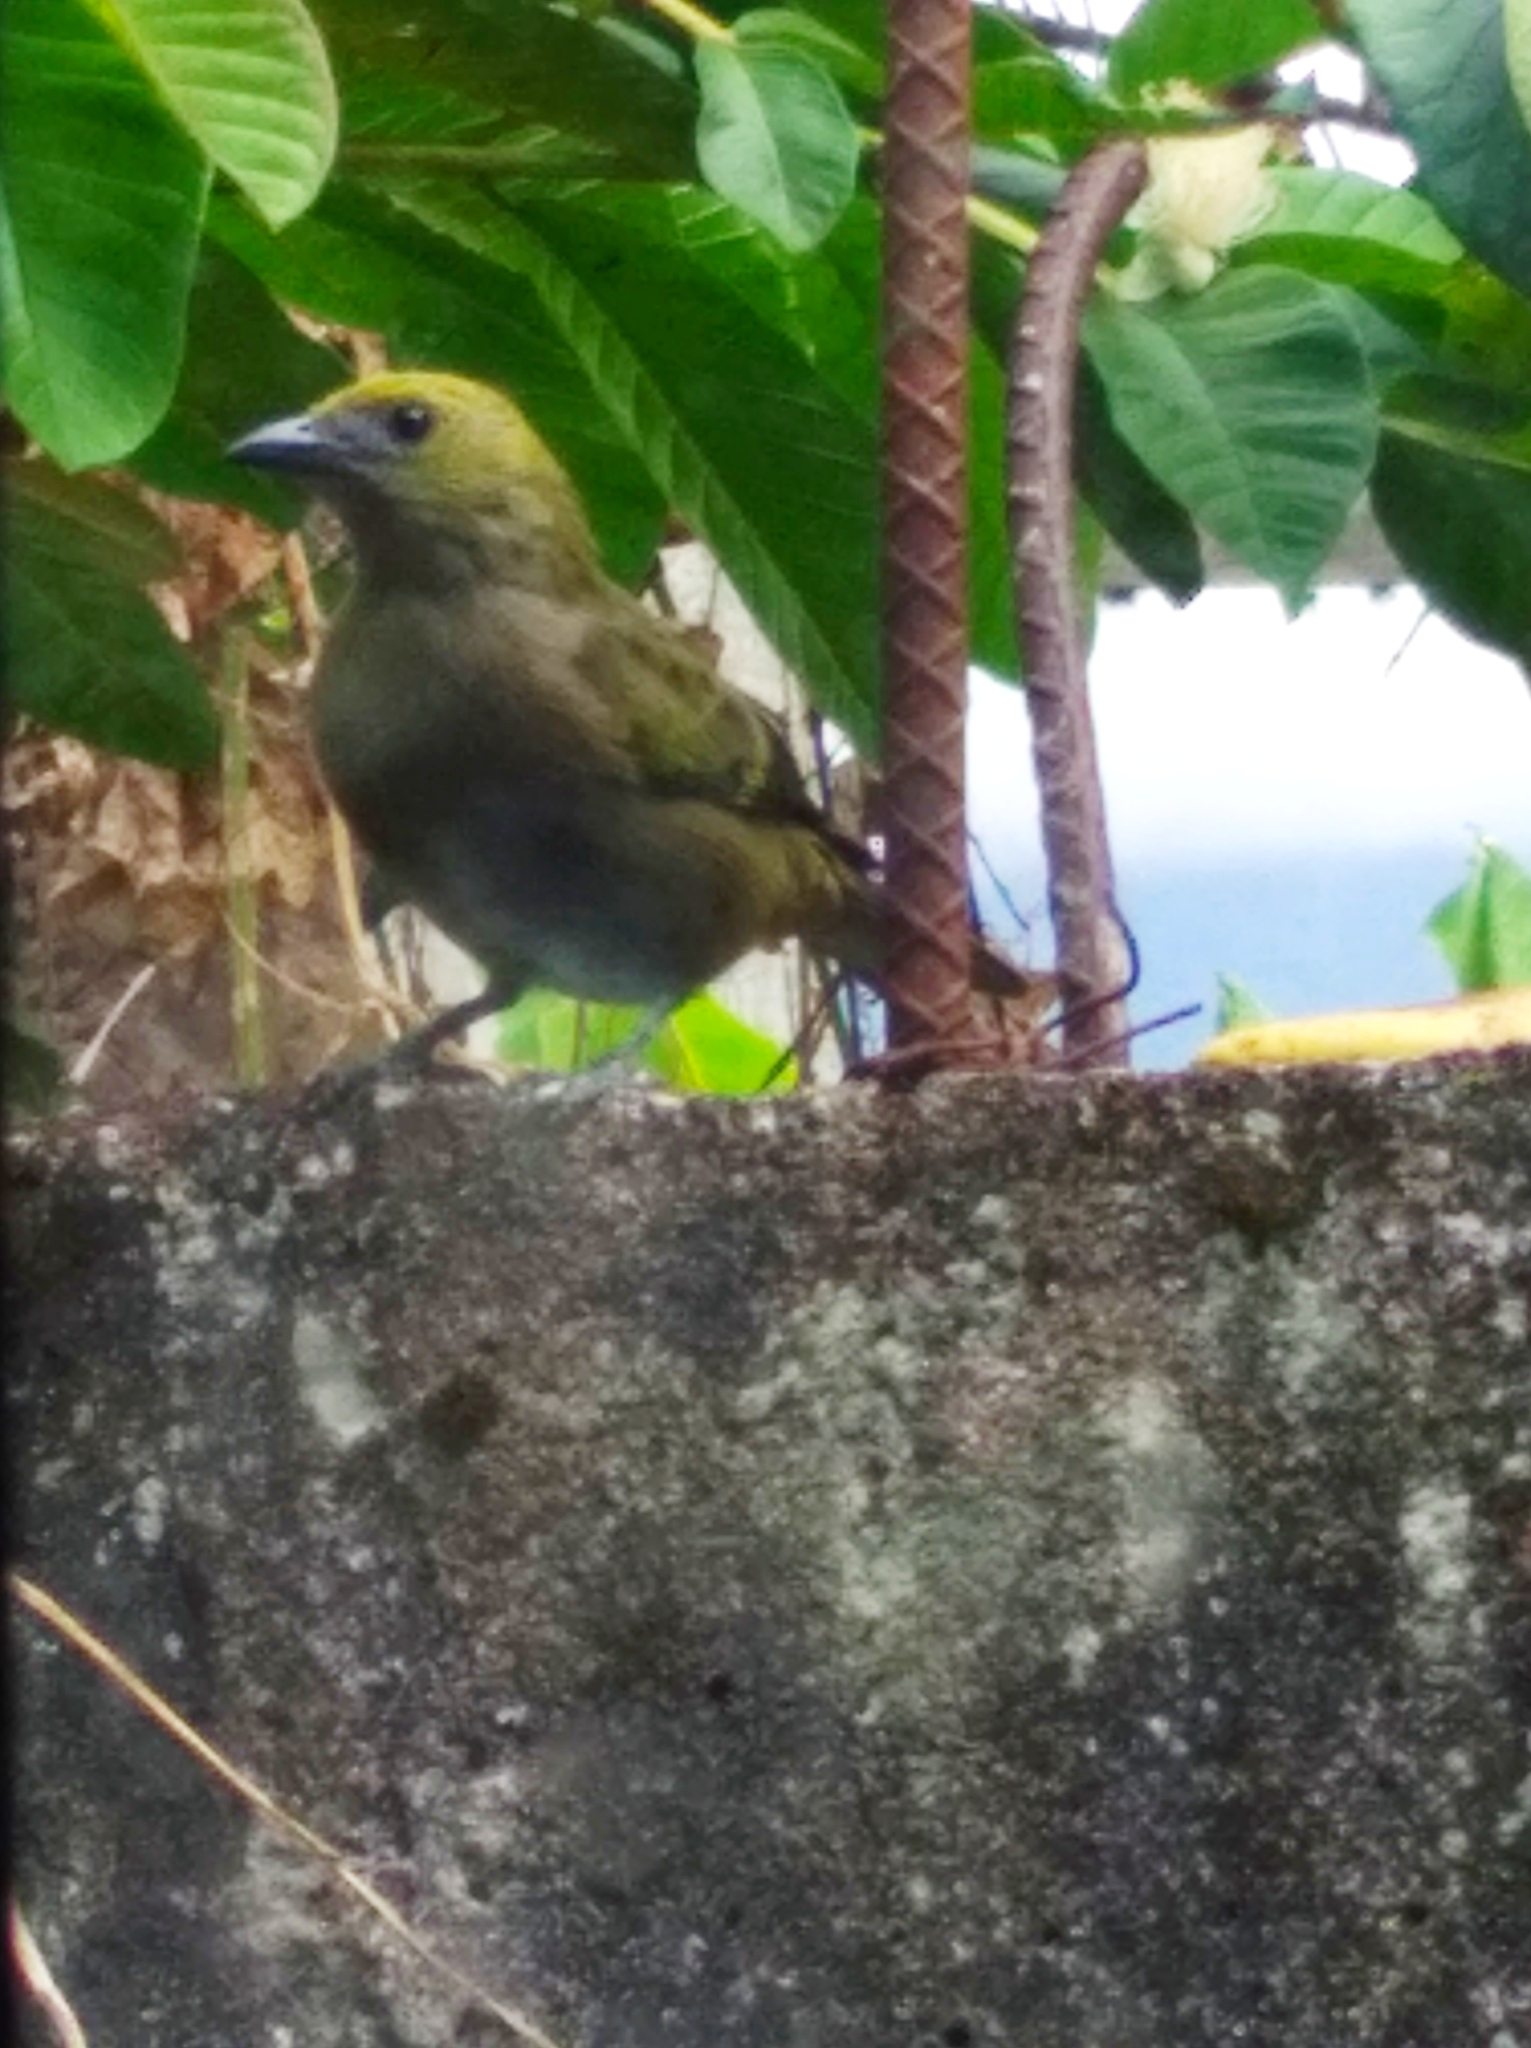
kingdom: Animalia
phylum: Chordata
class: Aves
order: Passeriformes
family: Thraupidae
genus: Thraupis
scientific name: Thraupis palmarum
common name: Palm tanager
